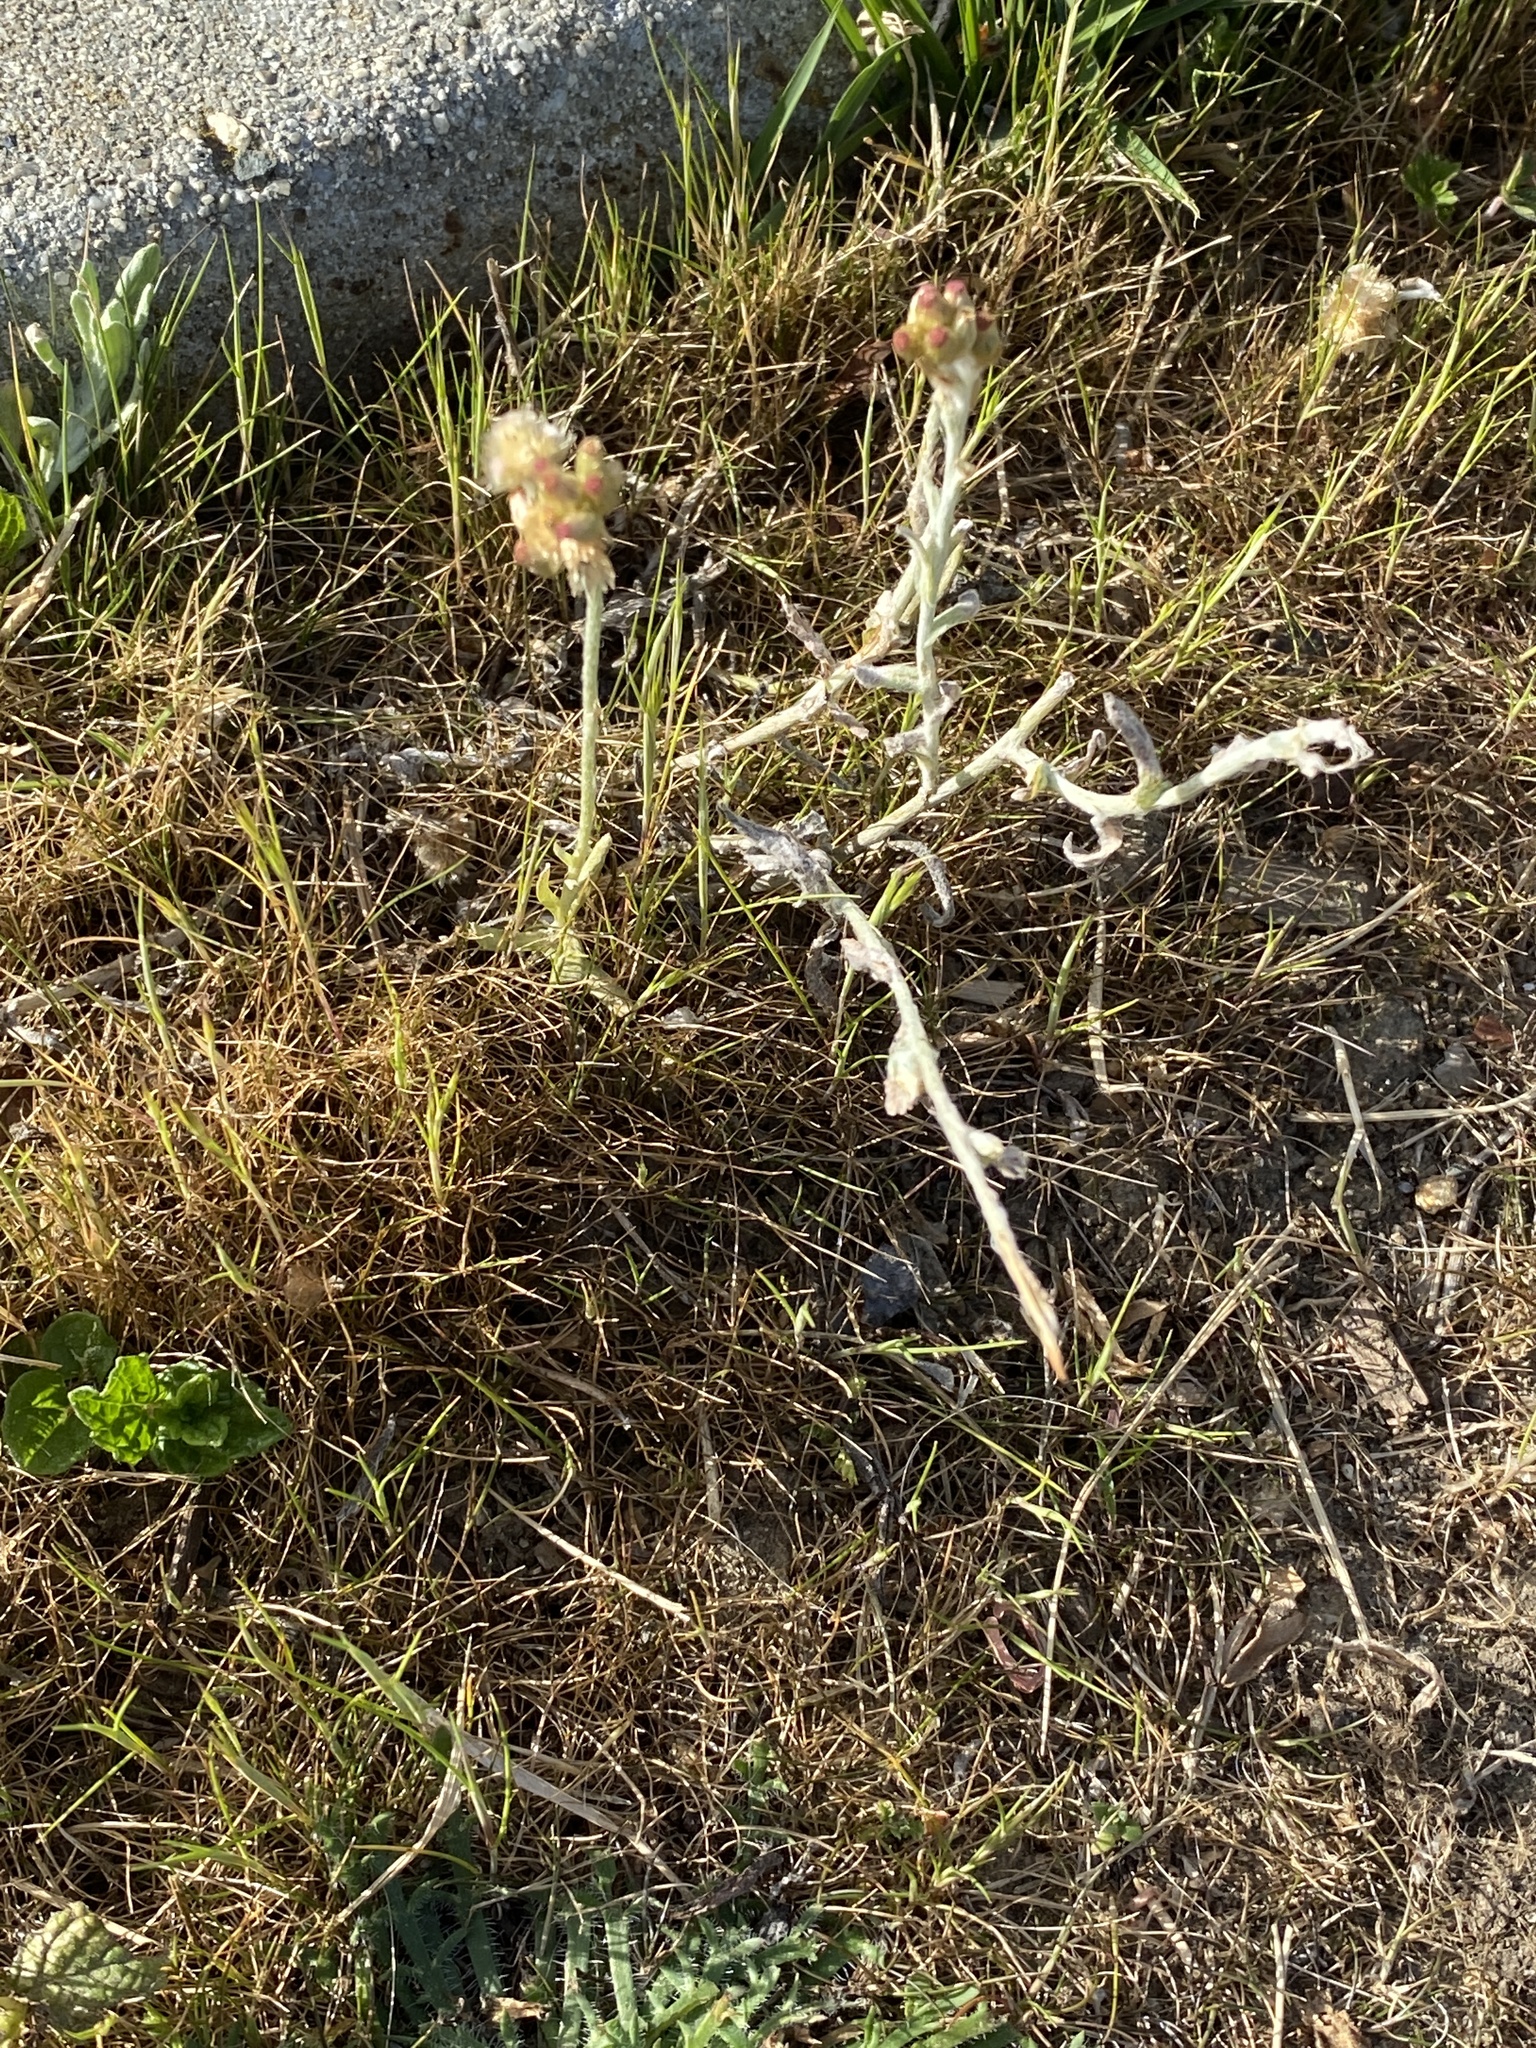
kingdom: Plantae
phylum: Tracheophyta
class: Magnoliopsida
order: Asterales
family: Asteraceae
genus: Helichrysum
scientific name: Helichrysum luteoalbum
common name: Daisy
